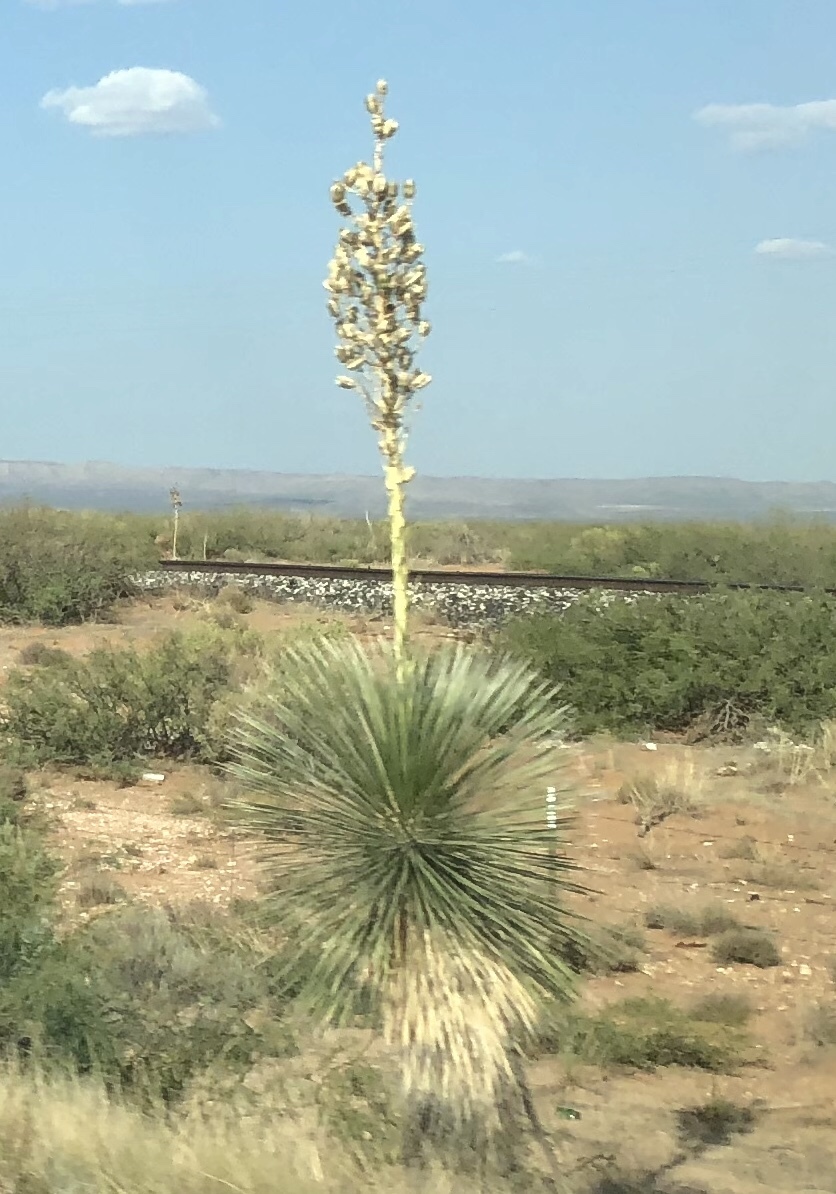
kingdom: Plantae
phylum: Tracheophyta
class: Liliopsida
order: Asparagales
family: Asparagaceae
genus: Yucca
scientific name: Yucca elata
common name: Palmella
